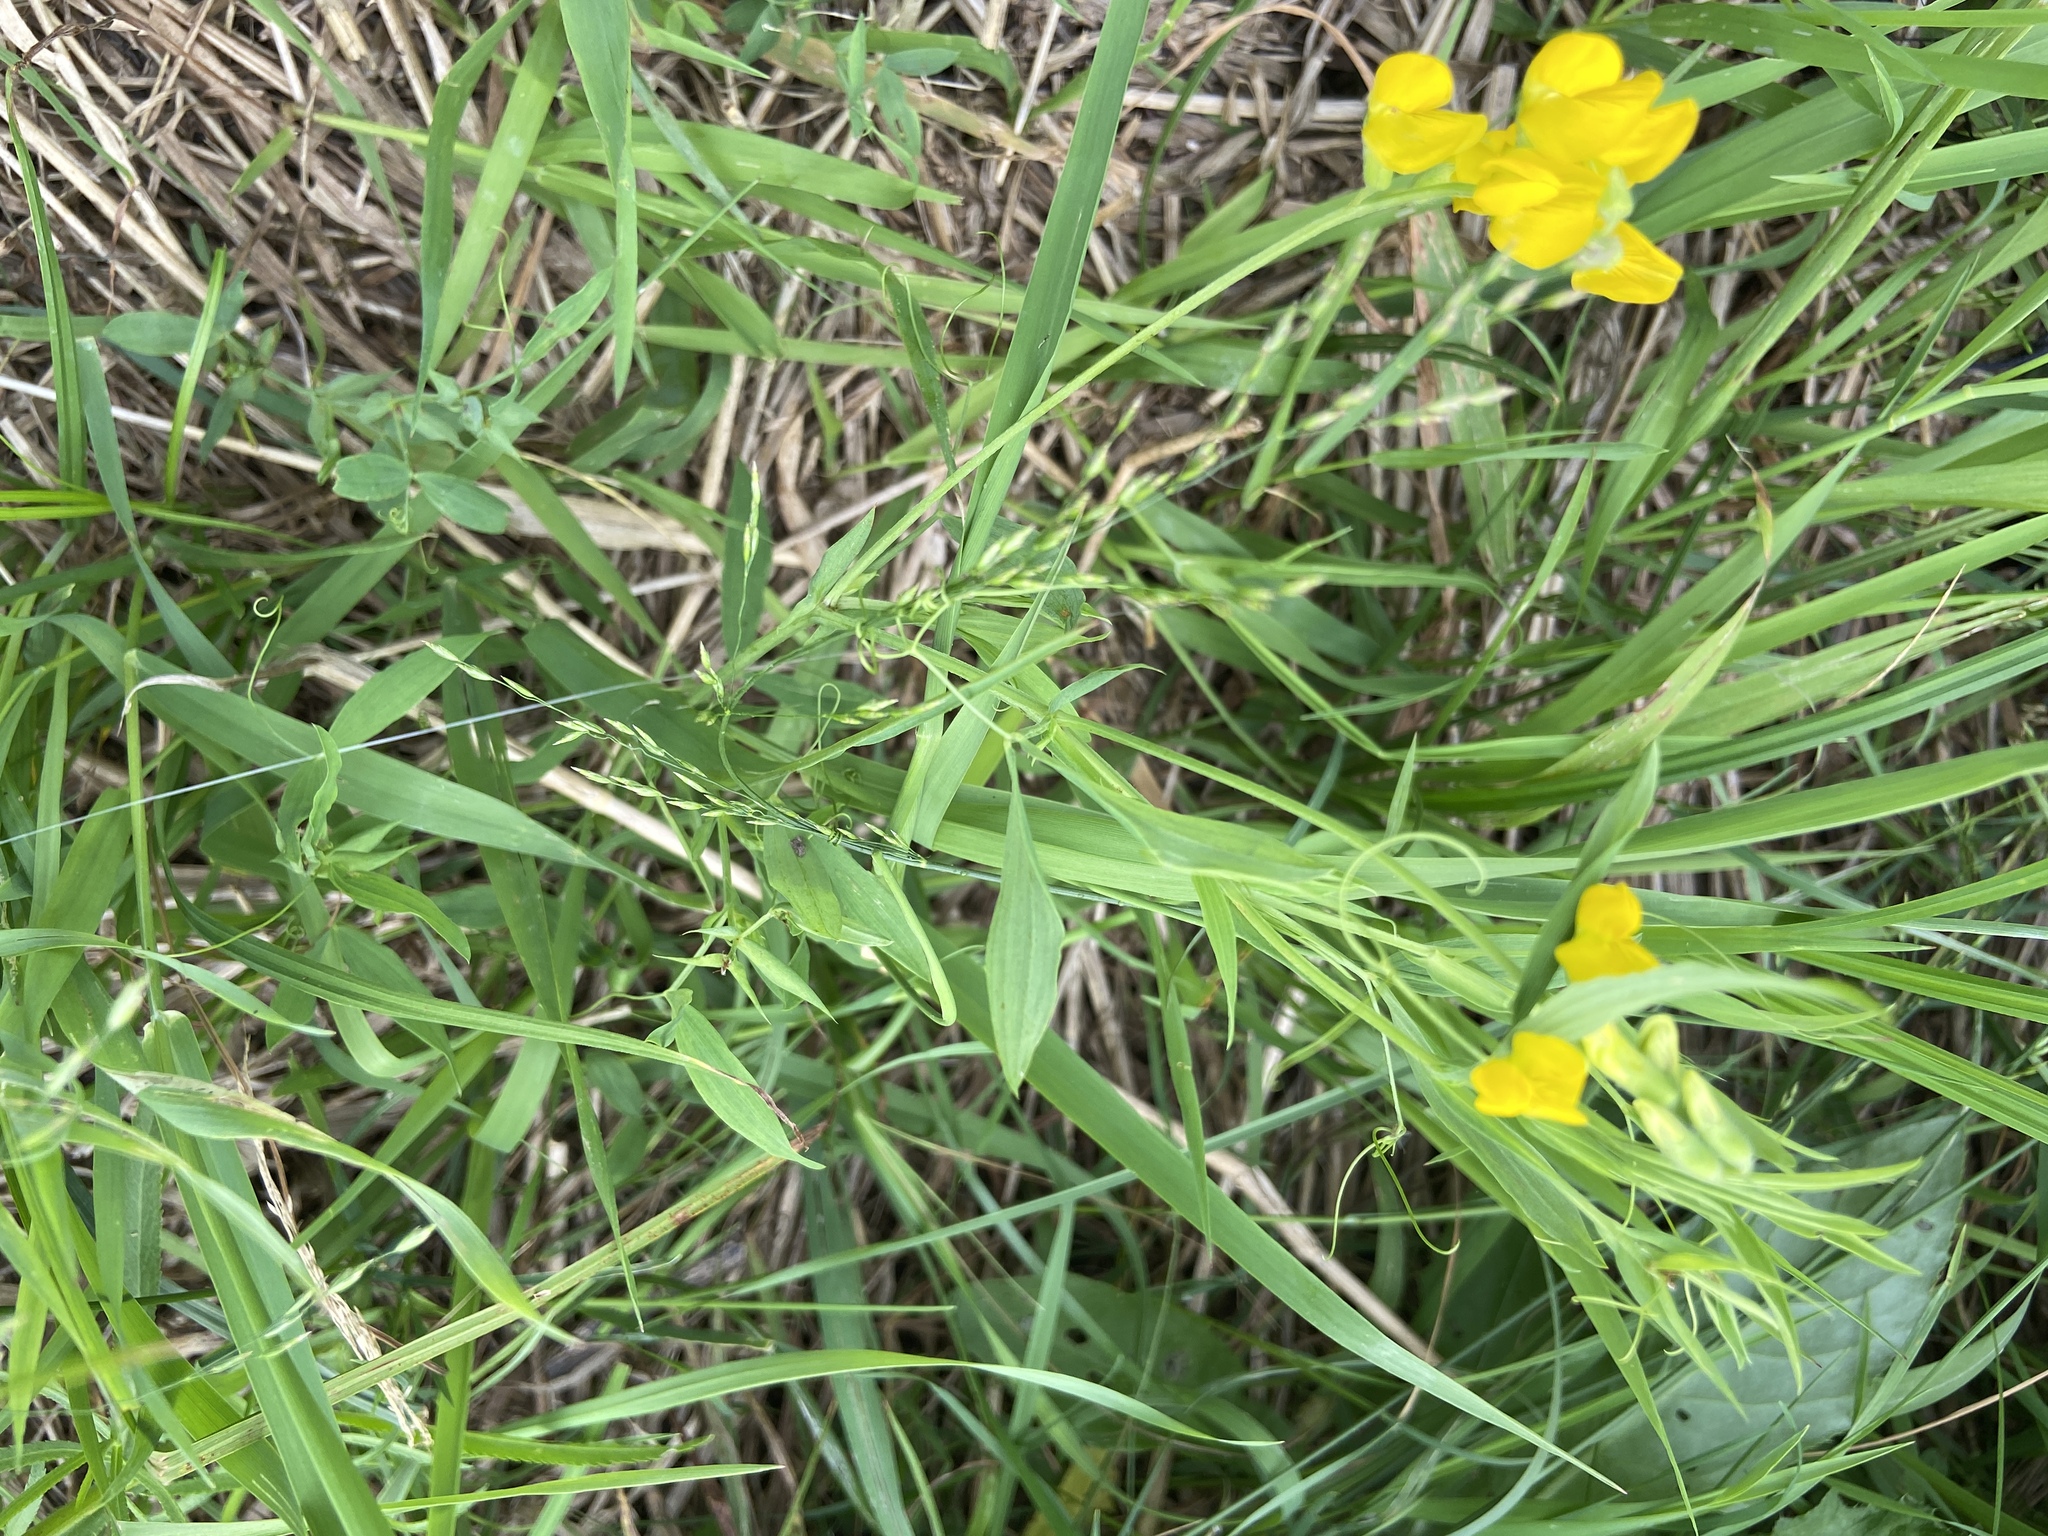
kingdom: Plantae
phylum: Tracheophyta
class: Magnoliopsida
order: Fabales
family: Fabaceae
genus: Lathyrus
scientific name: Lathyrus pratensis
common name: Meadow vetchling
